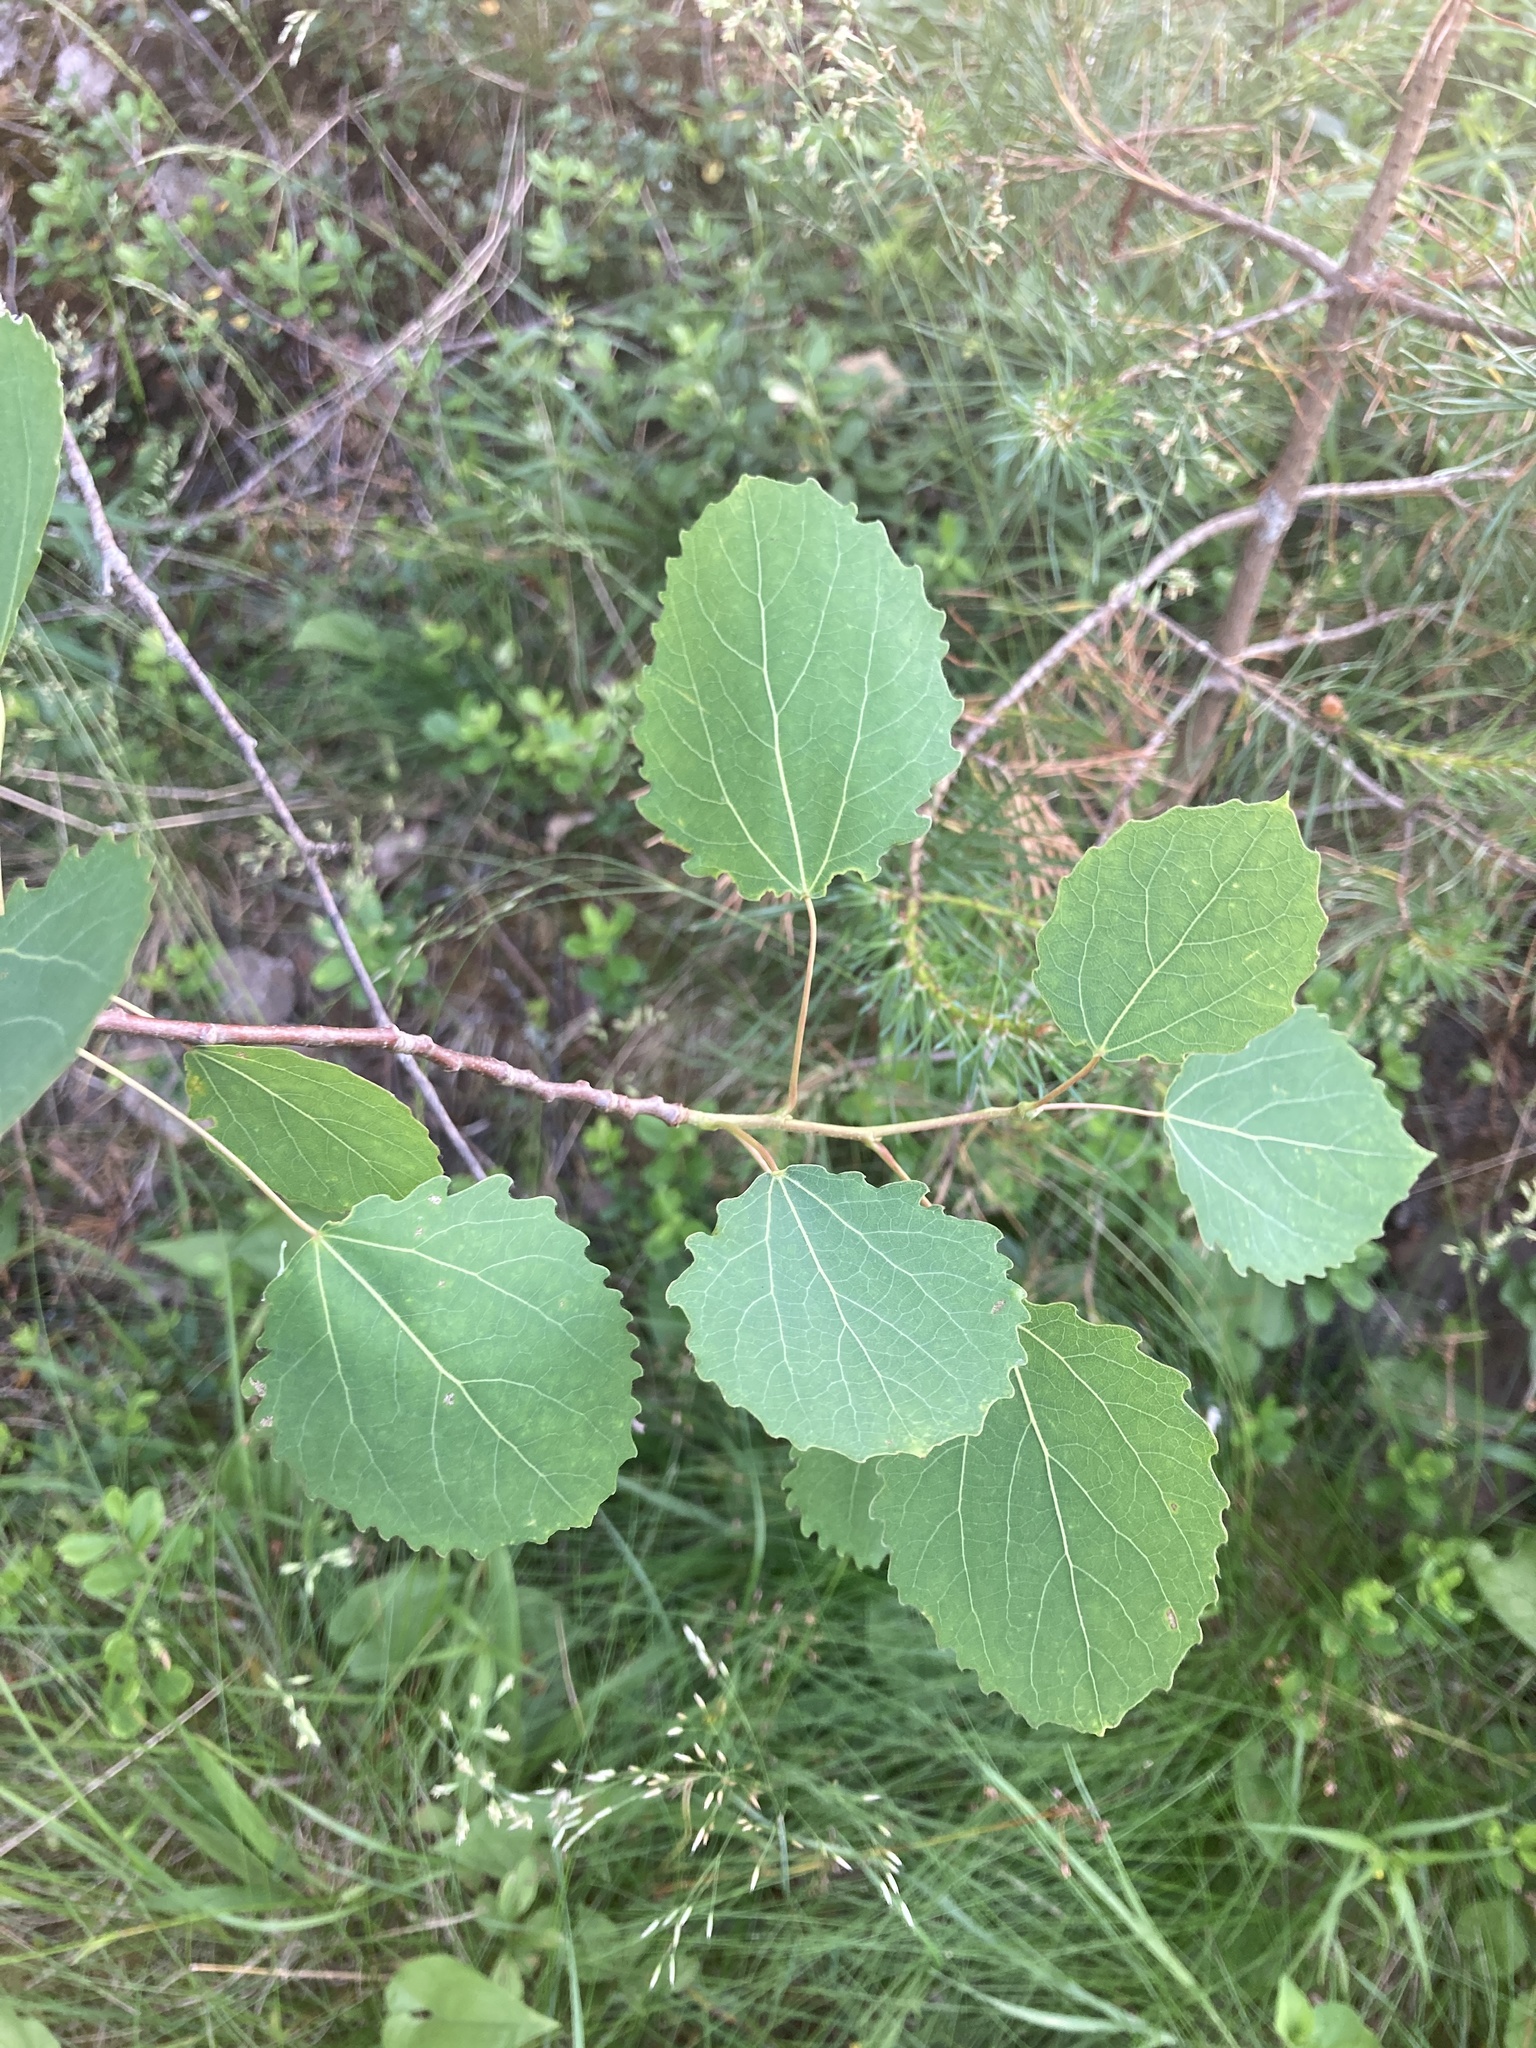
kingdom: Plantae
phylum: Tracheophyta
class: Magnoliopsida
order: Malpighiales
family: Salicaceae
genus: Populus
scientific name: Populus tremula
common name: European aspen
